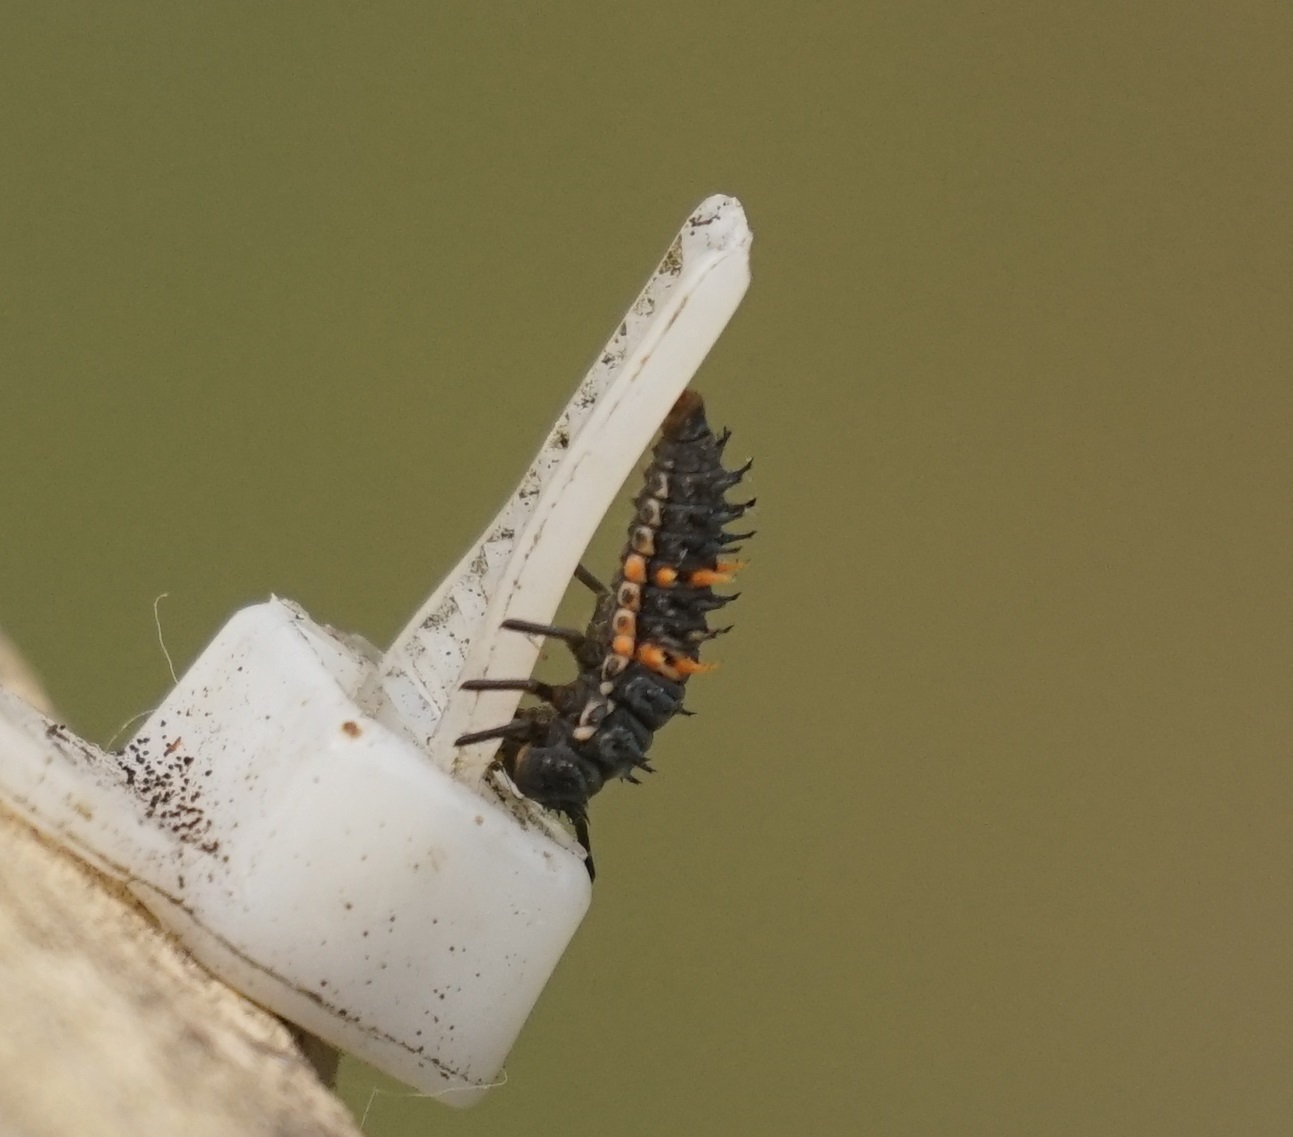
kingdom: Animalia
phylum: Arthropoda
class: Insecta
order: Coleoptera
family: Coccinellidae
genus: Harmonia
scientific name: Harmonia conformis
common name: Common spotted ladybird beetle
